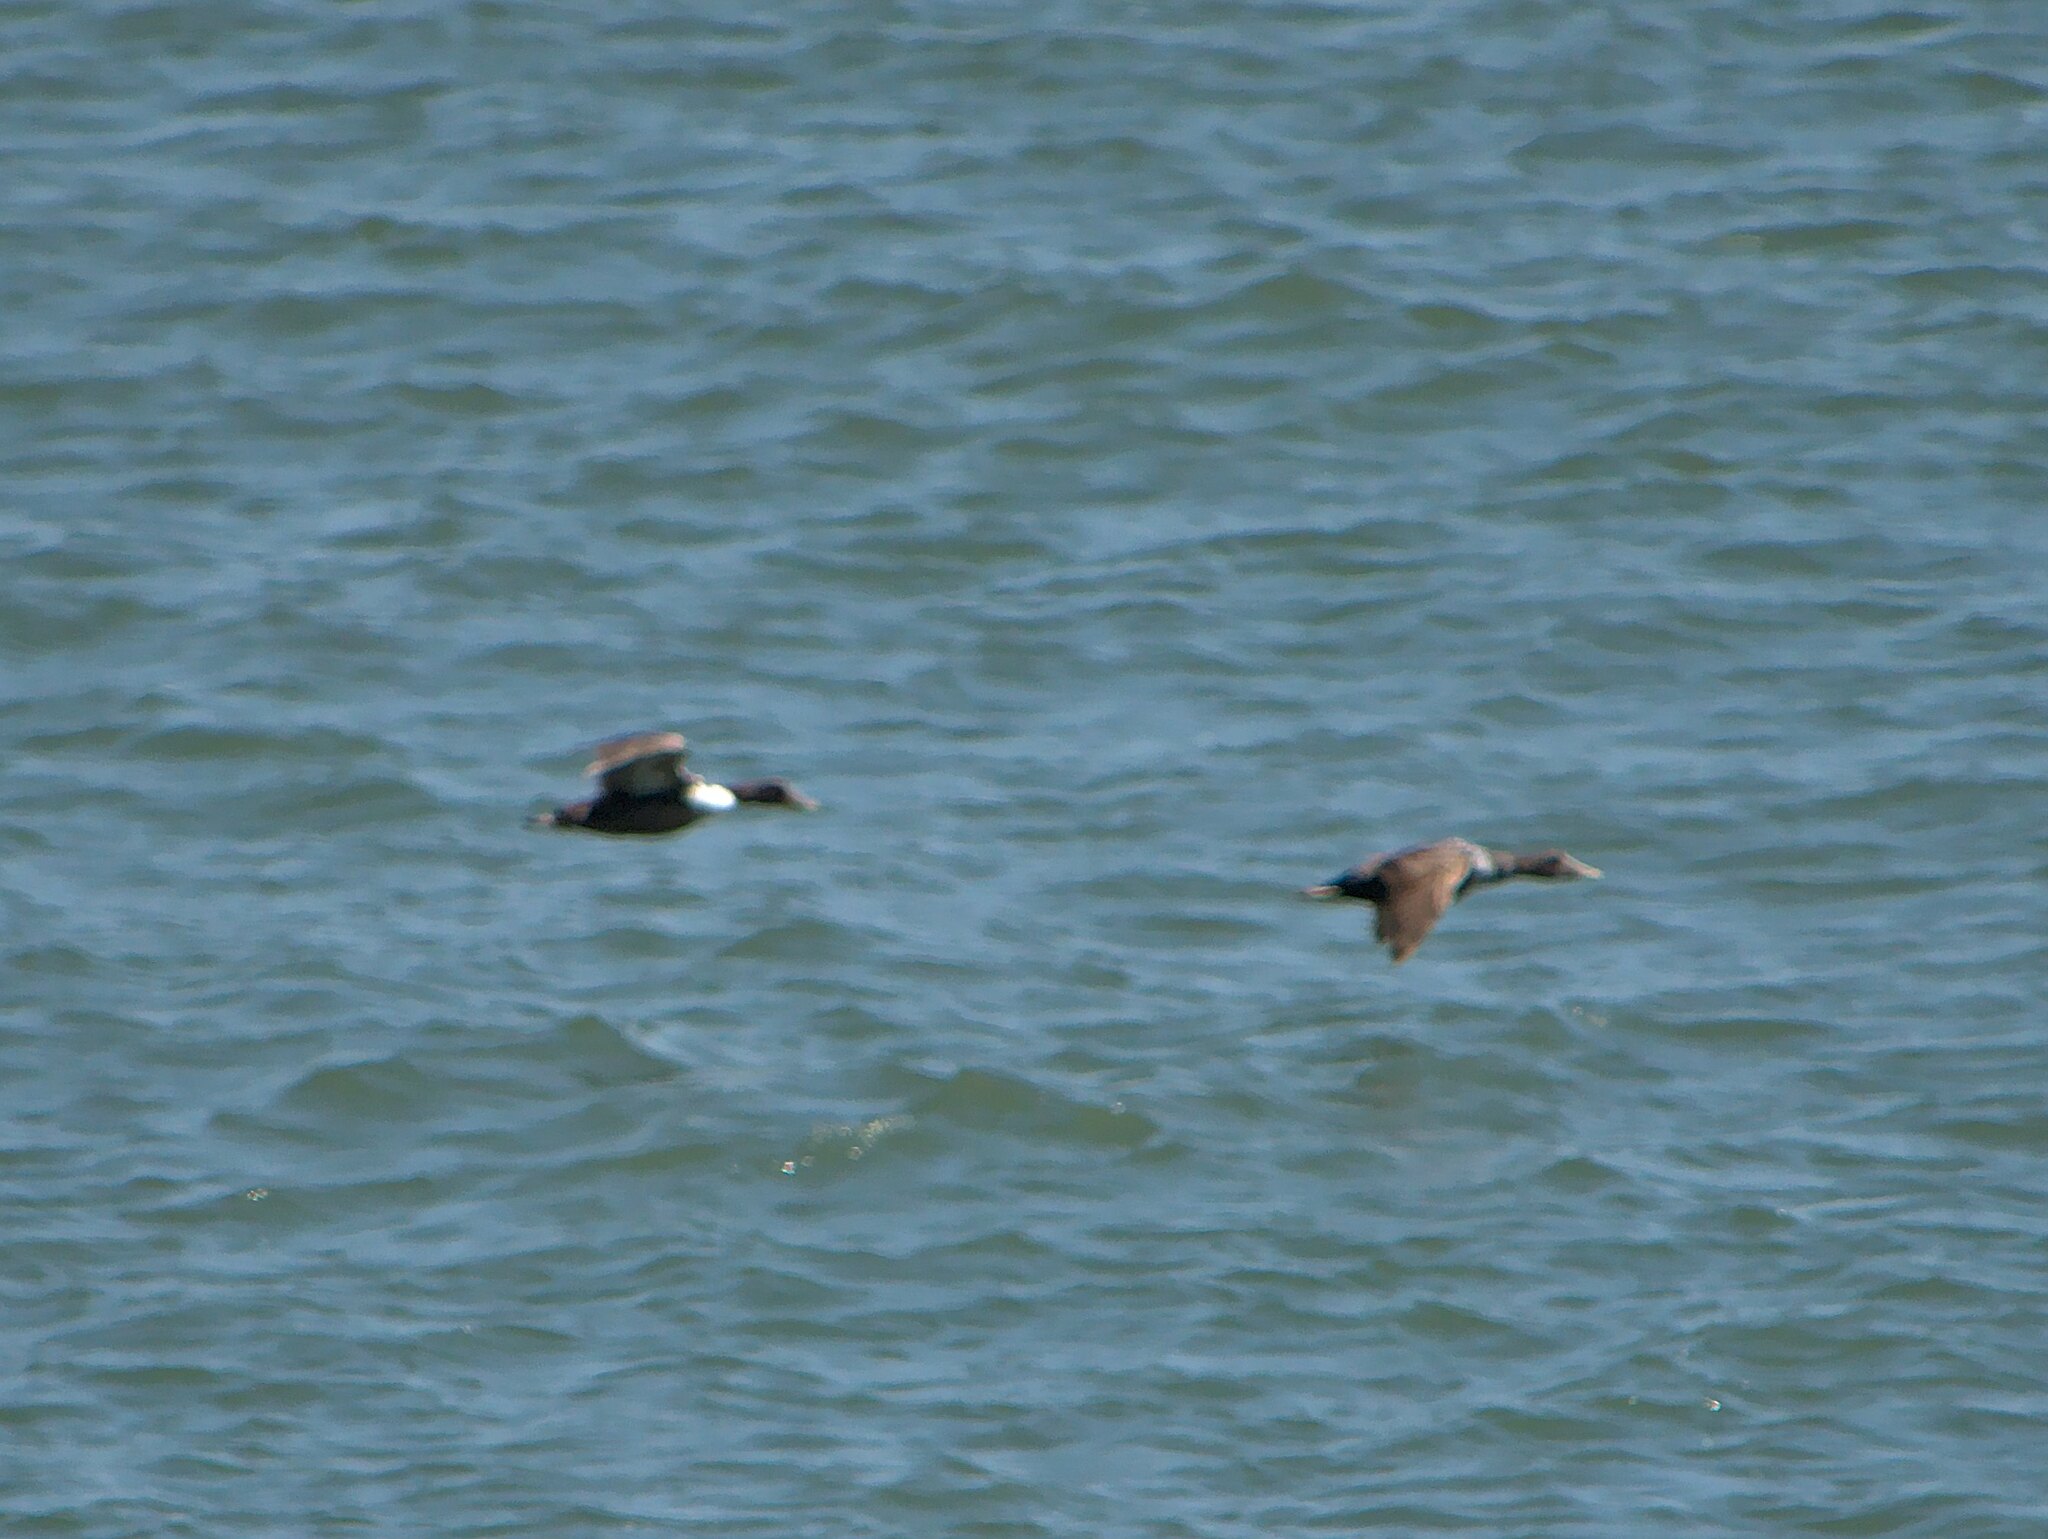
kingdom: Animalia
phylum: Chordata
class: Aves
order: Anseriformes
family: Anatidae
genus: Somateria
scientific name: Somateria mollissima
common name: Common eider
